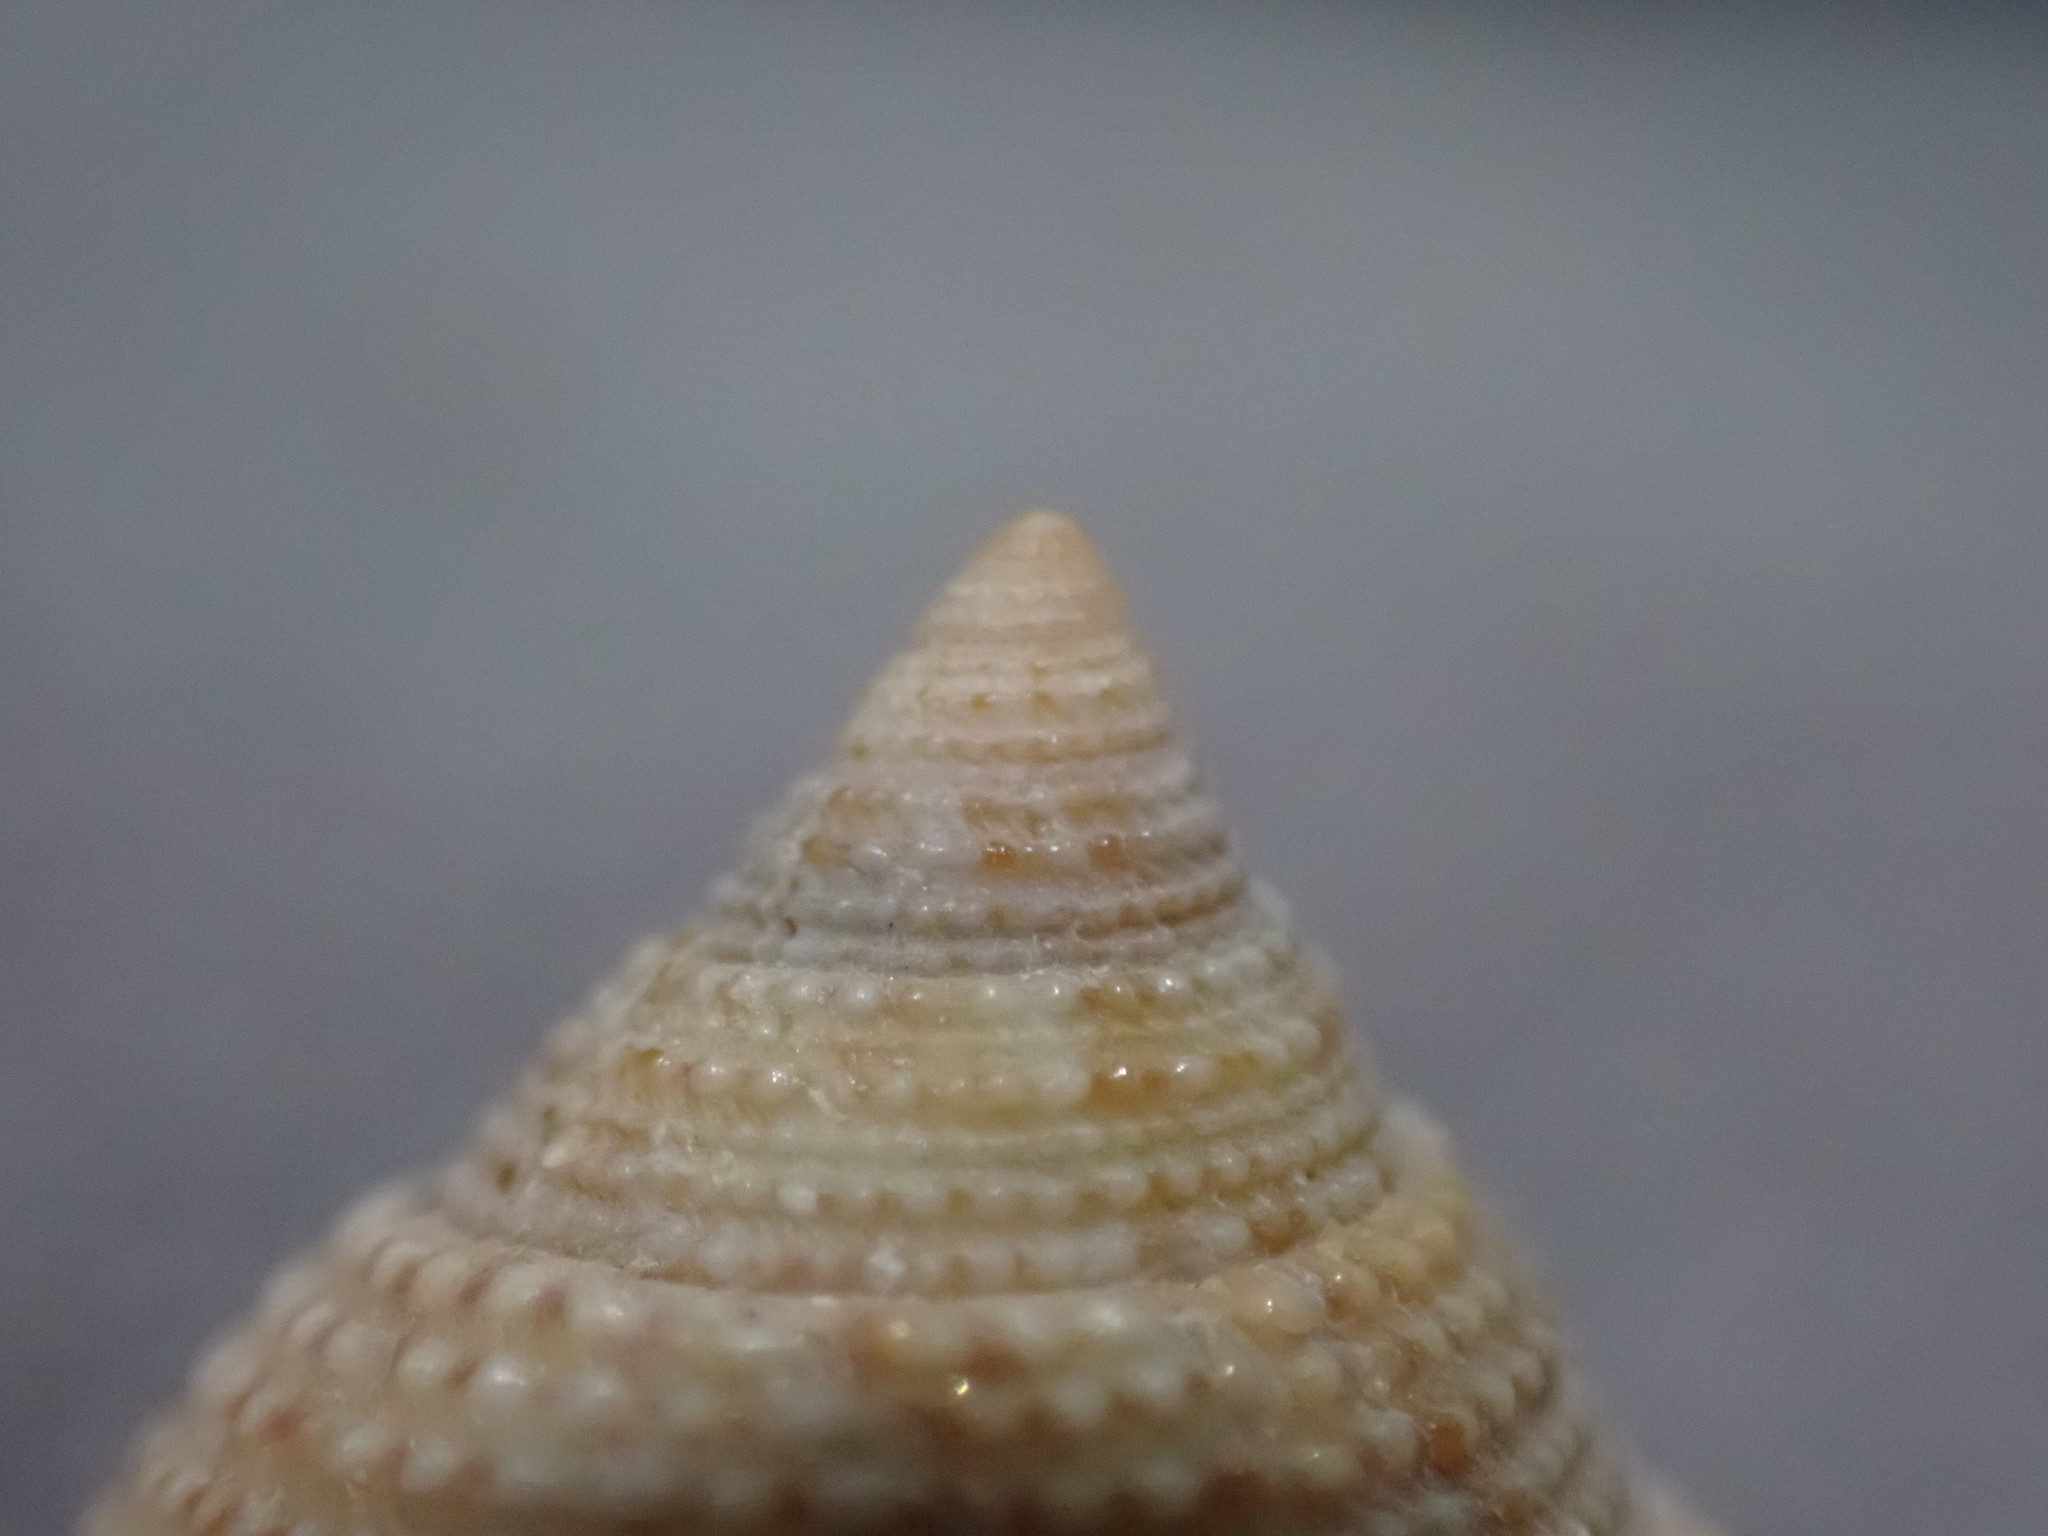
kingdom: Animalia
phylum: Mollusca
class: Gastropoda
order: Trochida
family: Calliostomatidae
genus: Maurea
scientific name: Maurea granti
